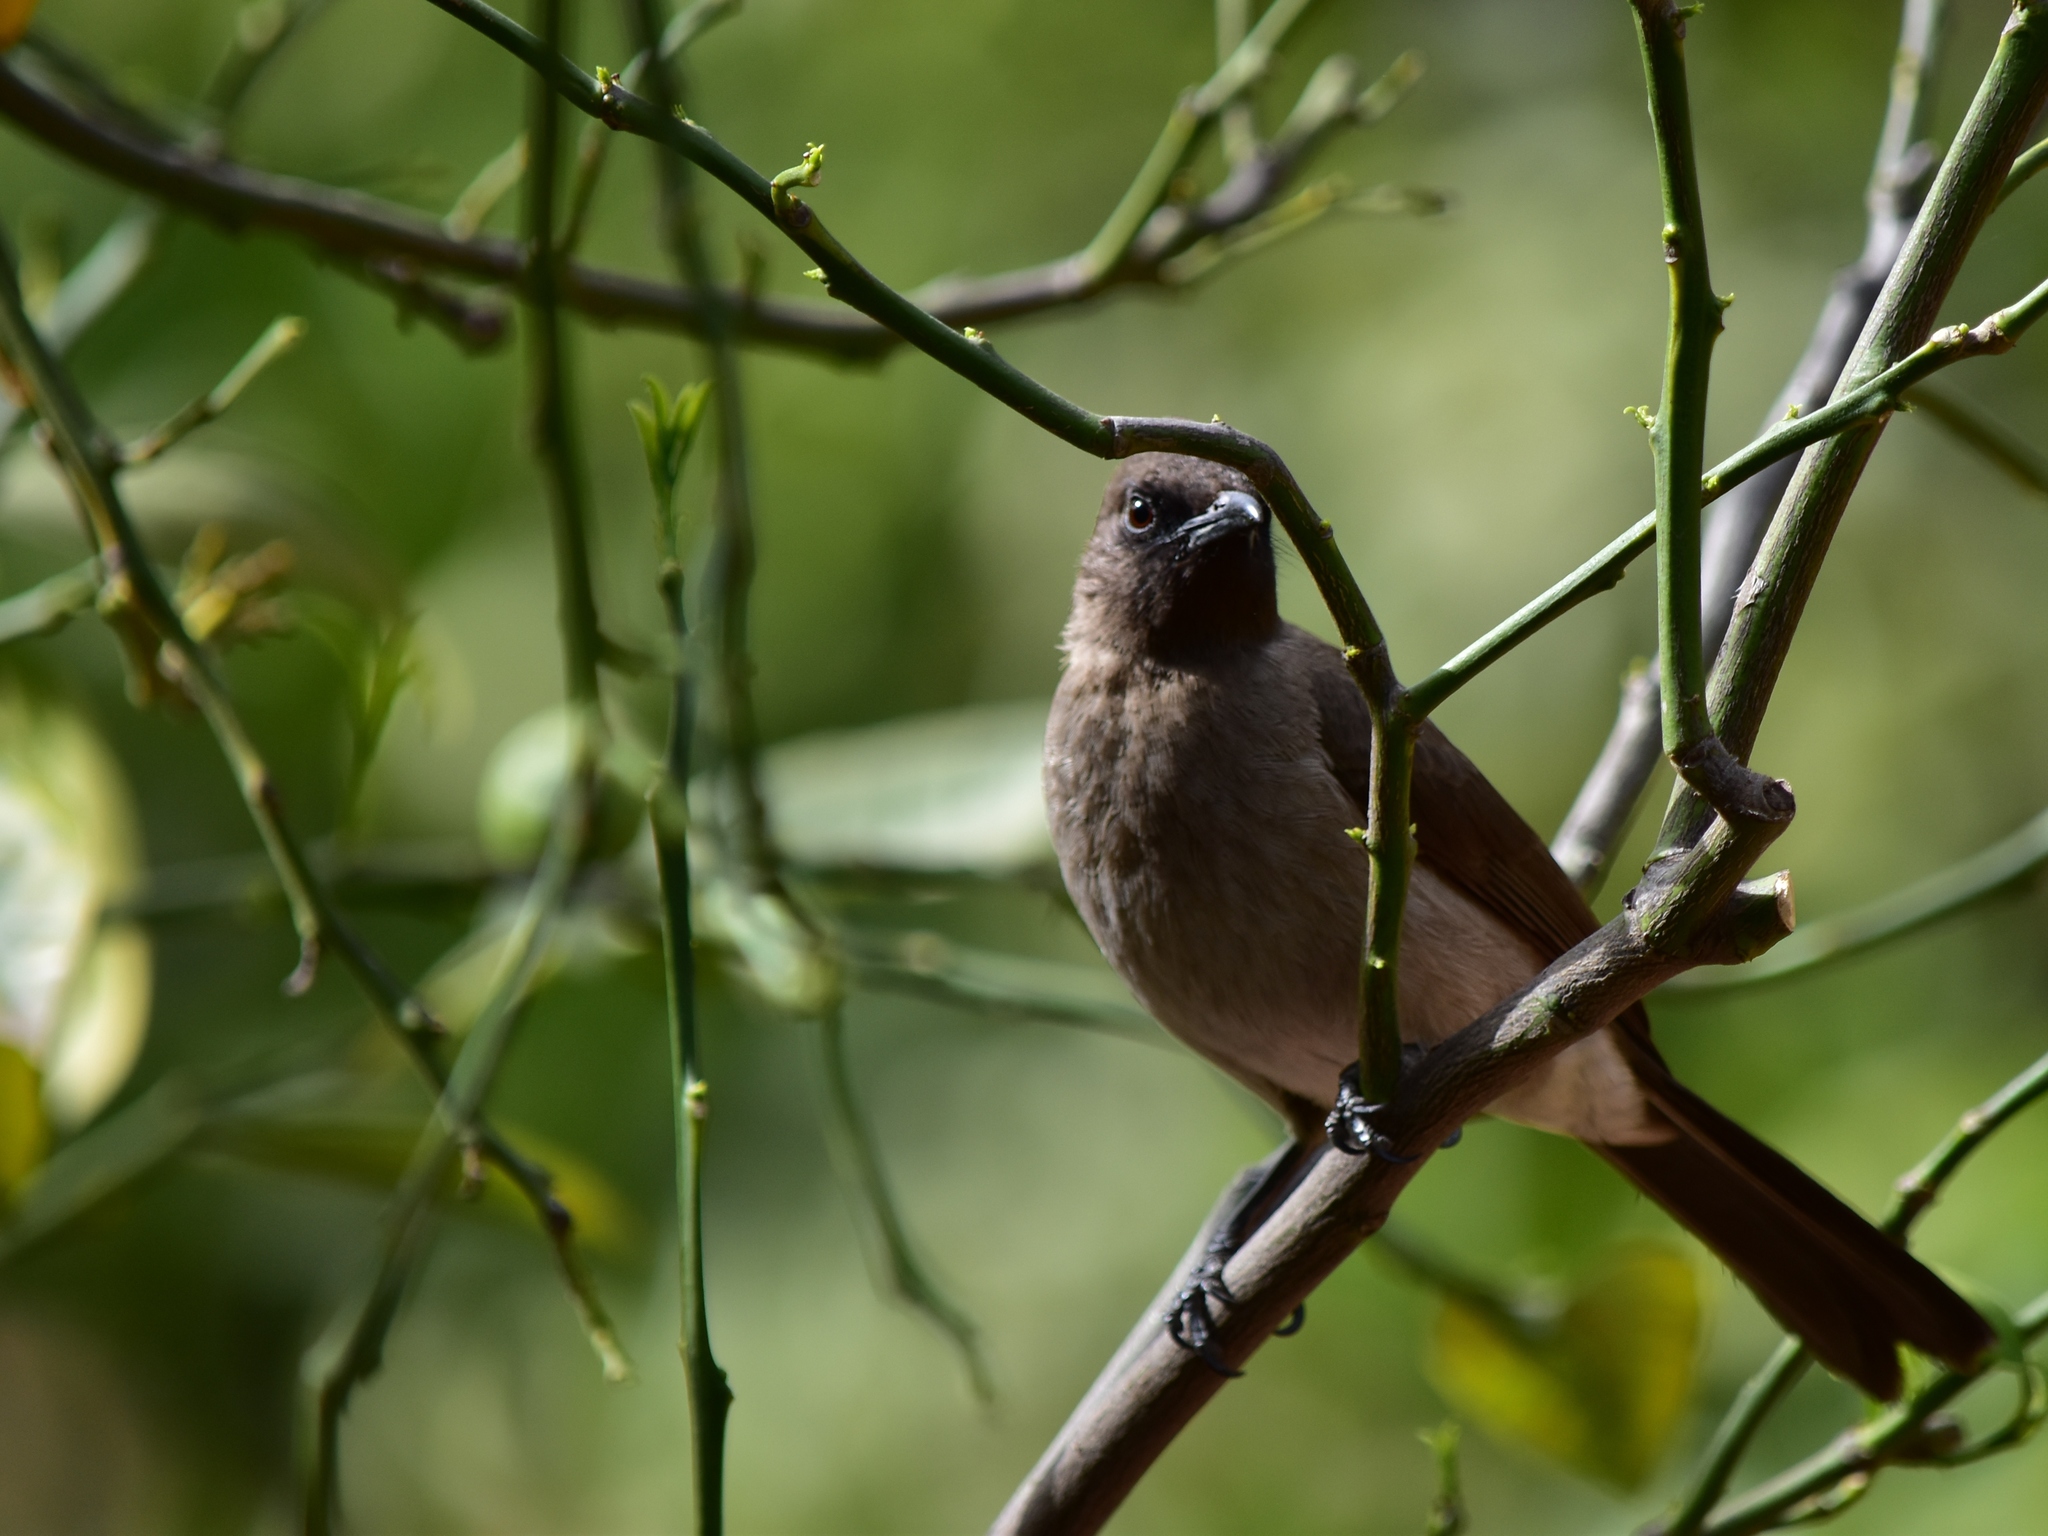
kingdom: Animalia
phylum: Chordata
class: Aves
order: Passeriformes
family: Pycnonotidae
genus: Pycnonotus
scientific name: Pycnonotus barbatus
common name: Common bulbul
